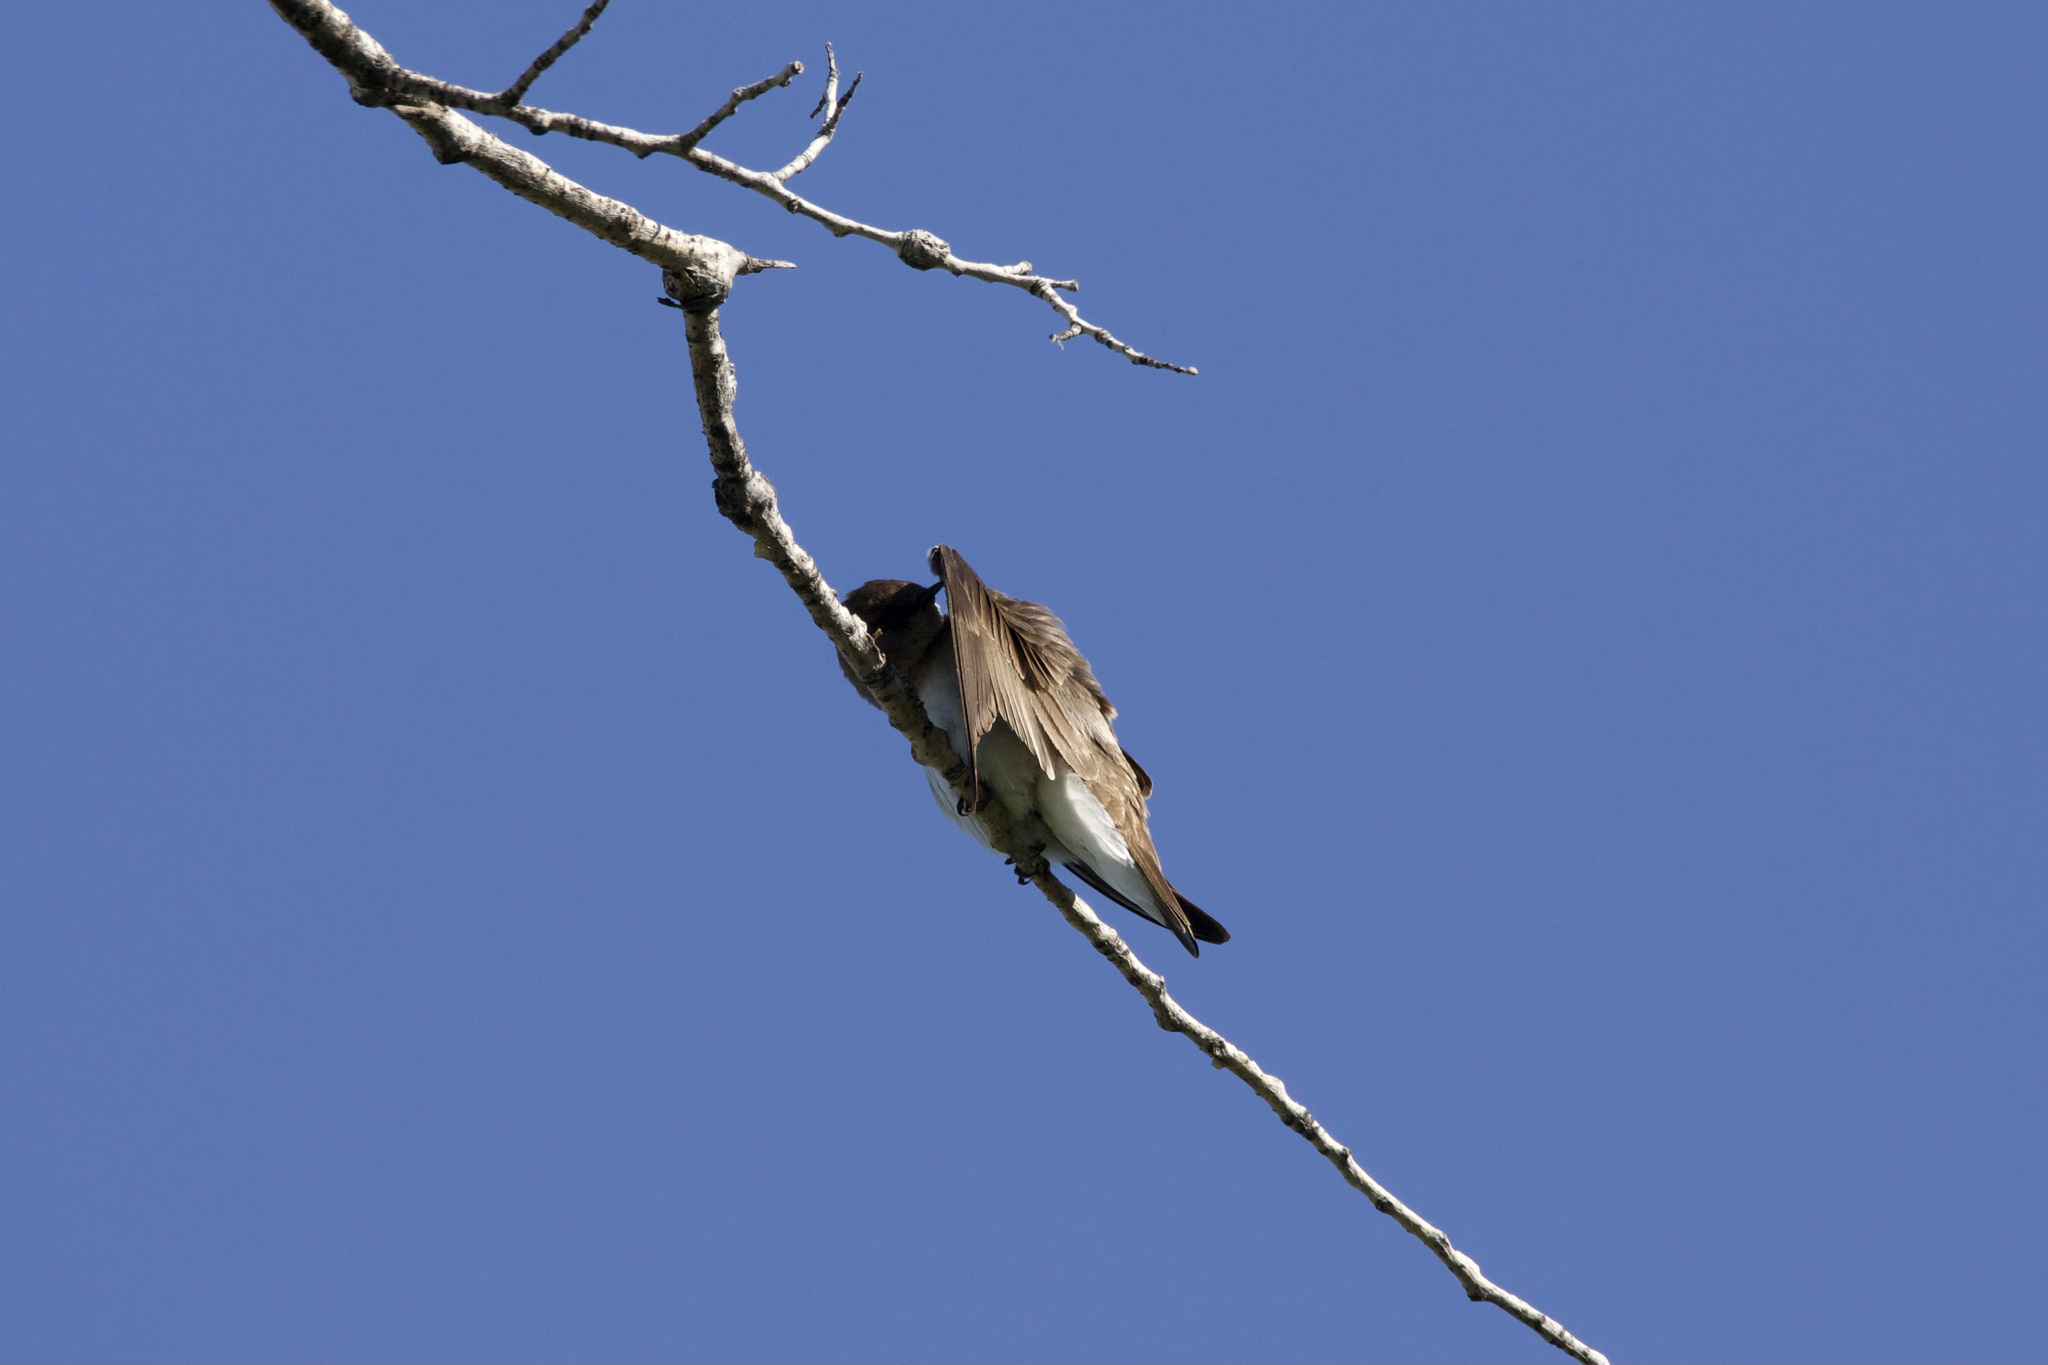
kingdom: Animalia
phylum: Chordata
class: Aves
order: Passeriformes
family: Hirundinidae
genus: Stelgidopteryx
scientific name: Stelgidopteryx serripennis
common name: Northern rough-winged swallow
